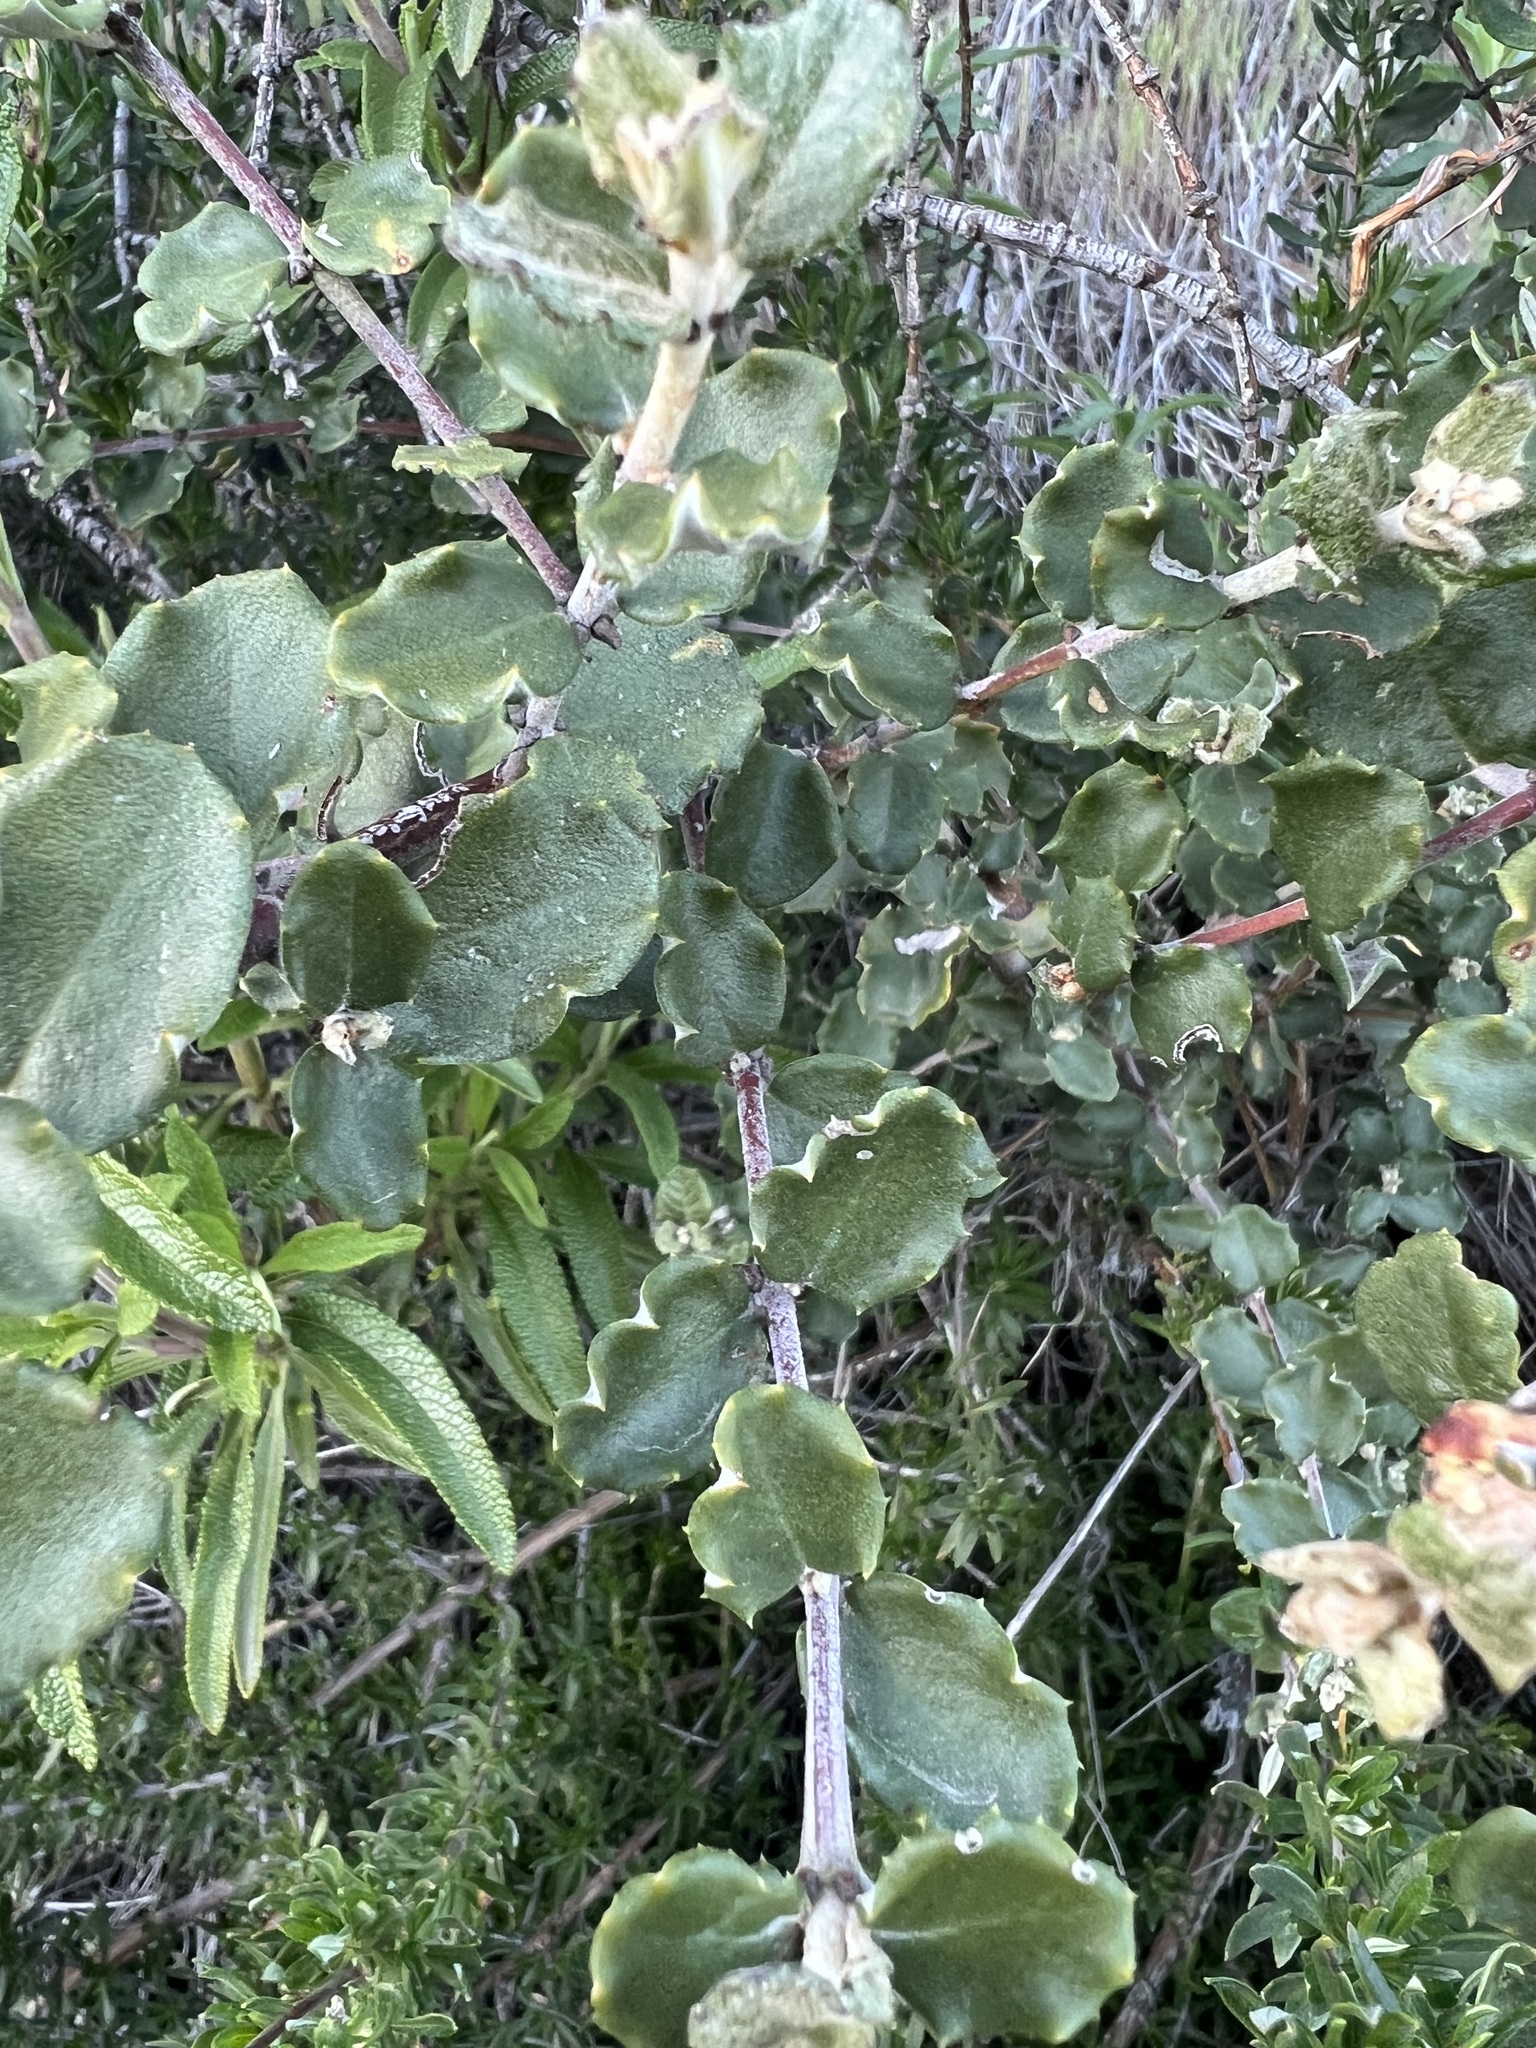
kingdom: Plantae
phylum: Tracheophyta
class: Magnoliopsida
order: Rosales
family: Rhamnaceae
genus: Ceanothus
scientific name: Ceanothus crassifolius
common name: Hoaryleaf ceanothus
